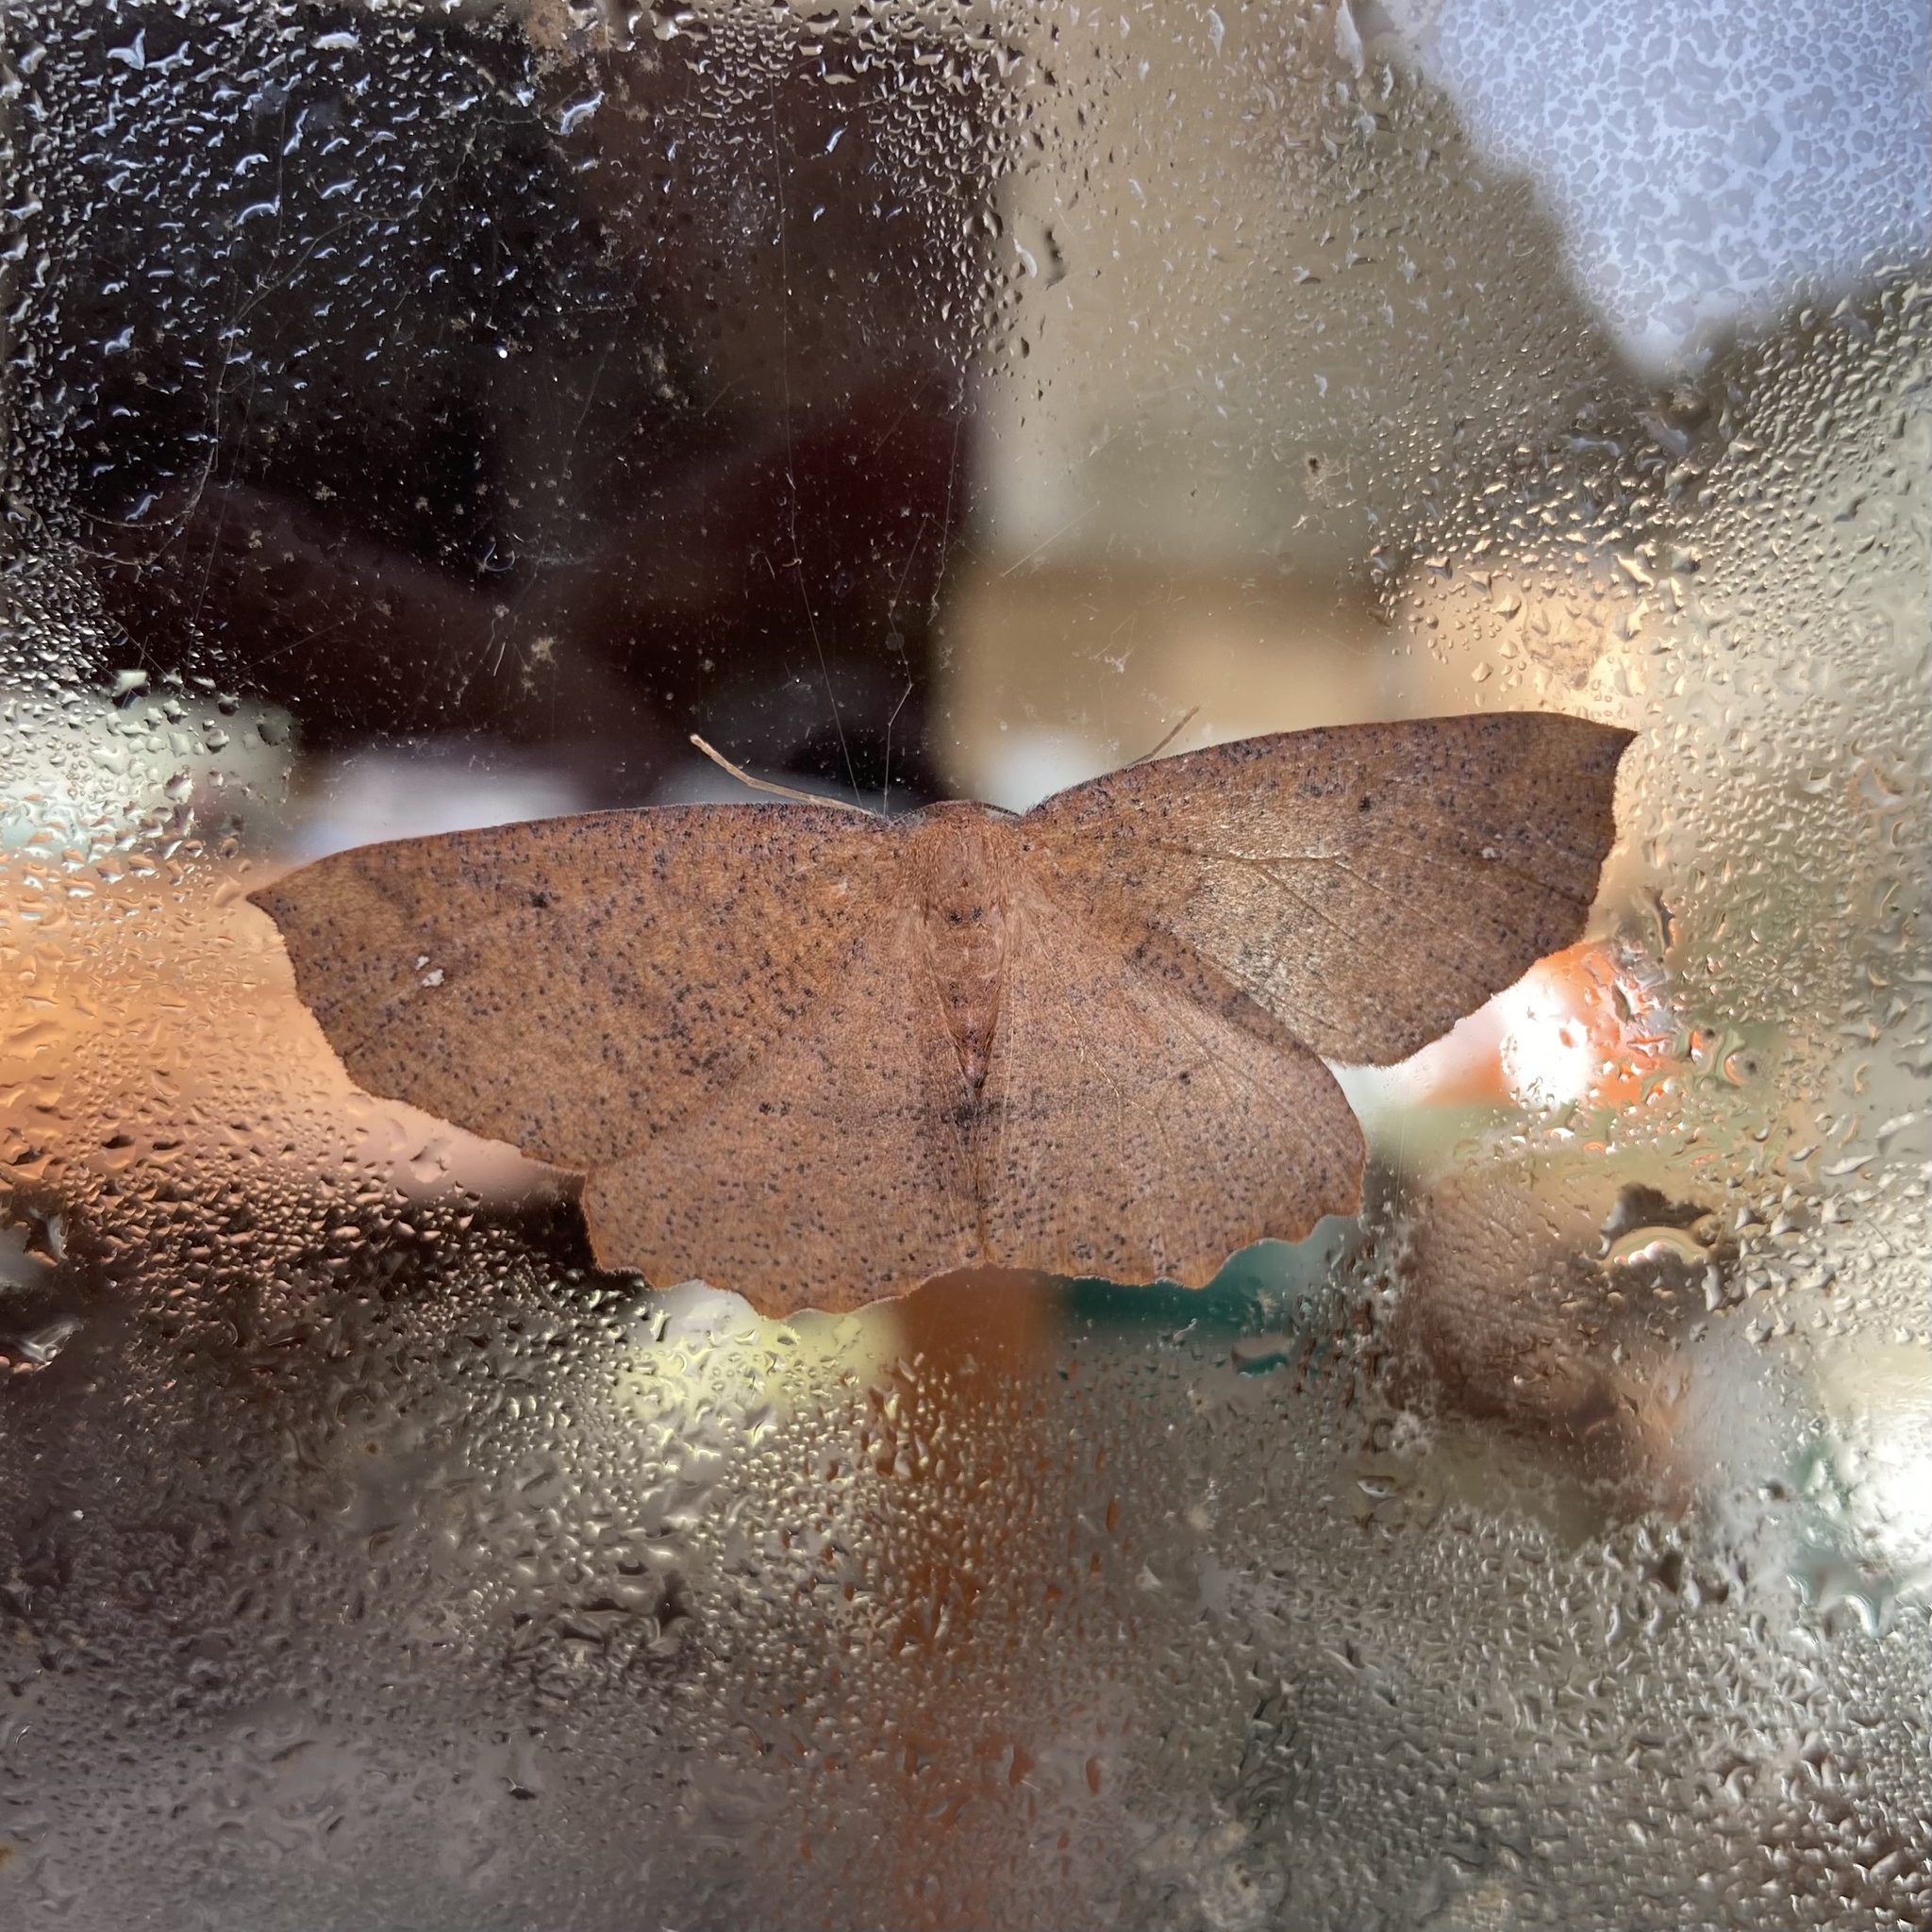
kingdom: Animalia
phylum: Arthropoda
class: Insecta
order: Lepidoptera
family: Geometridae
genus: Xyridacma
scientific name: Xyridacma ustaria
